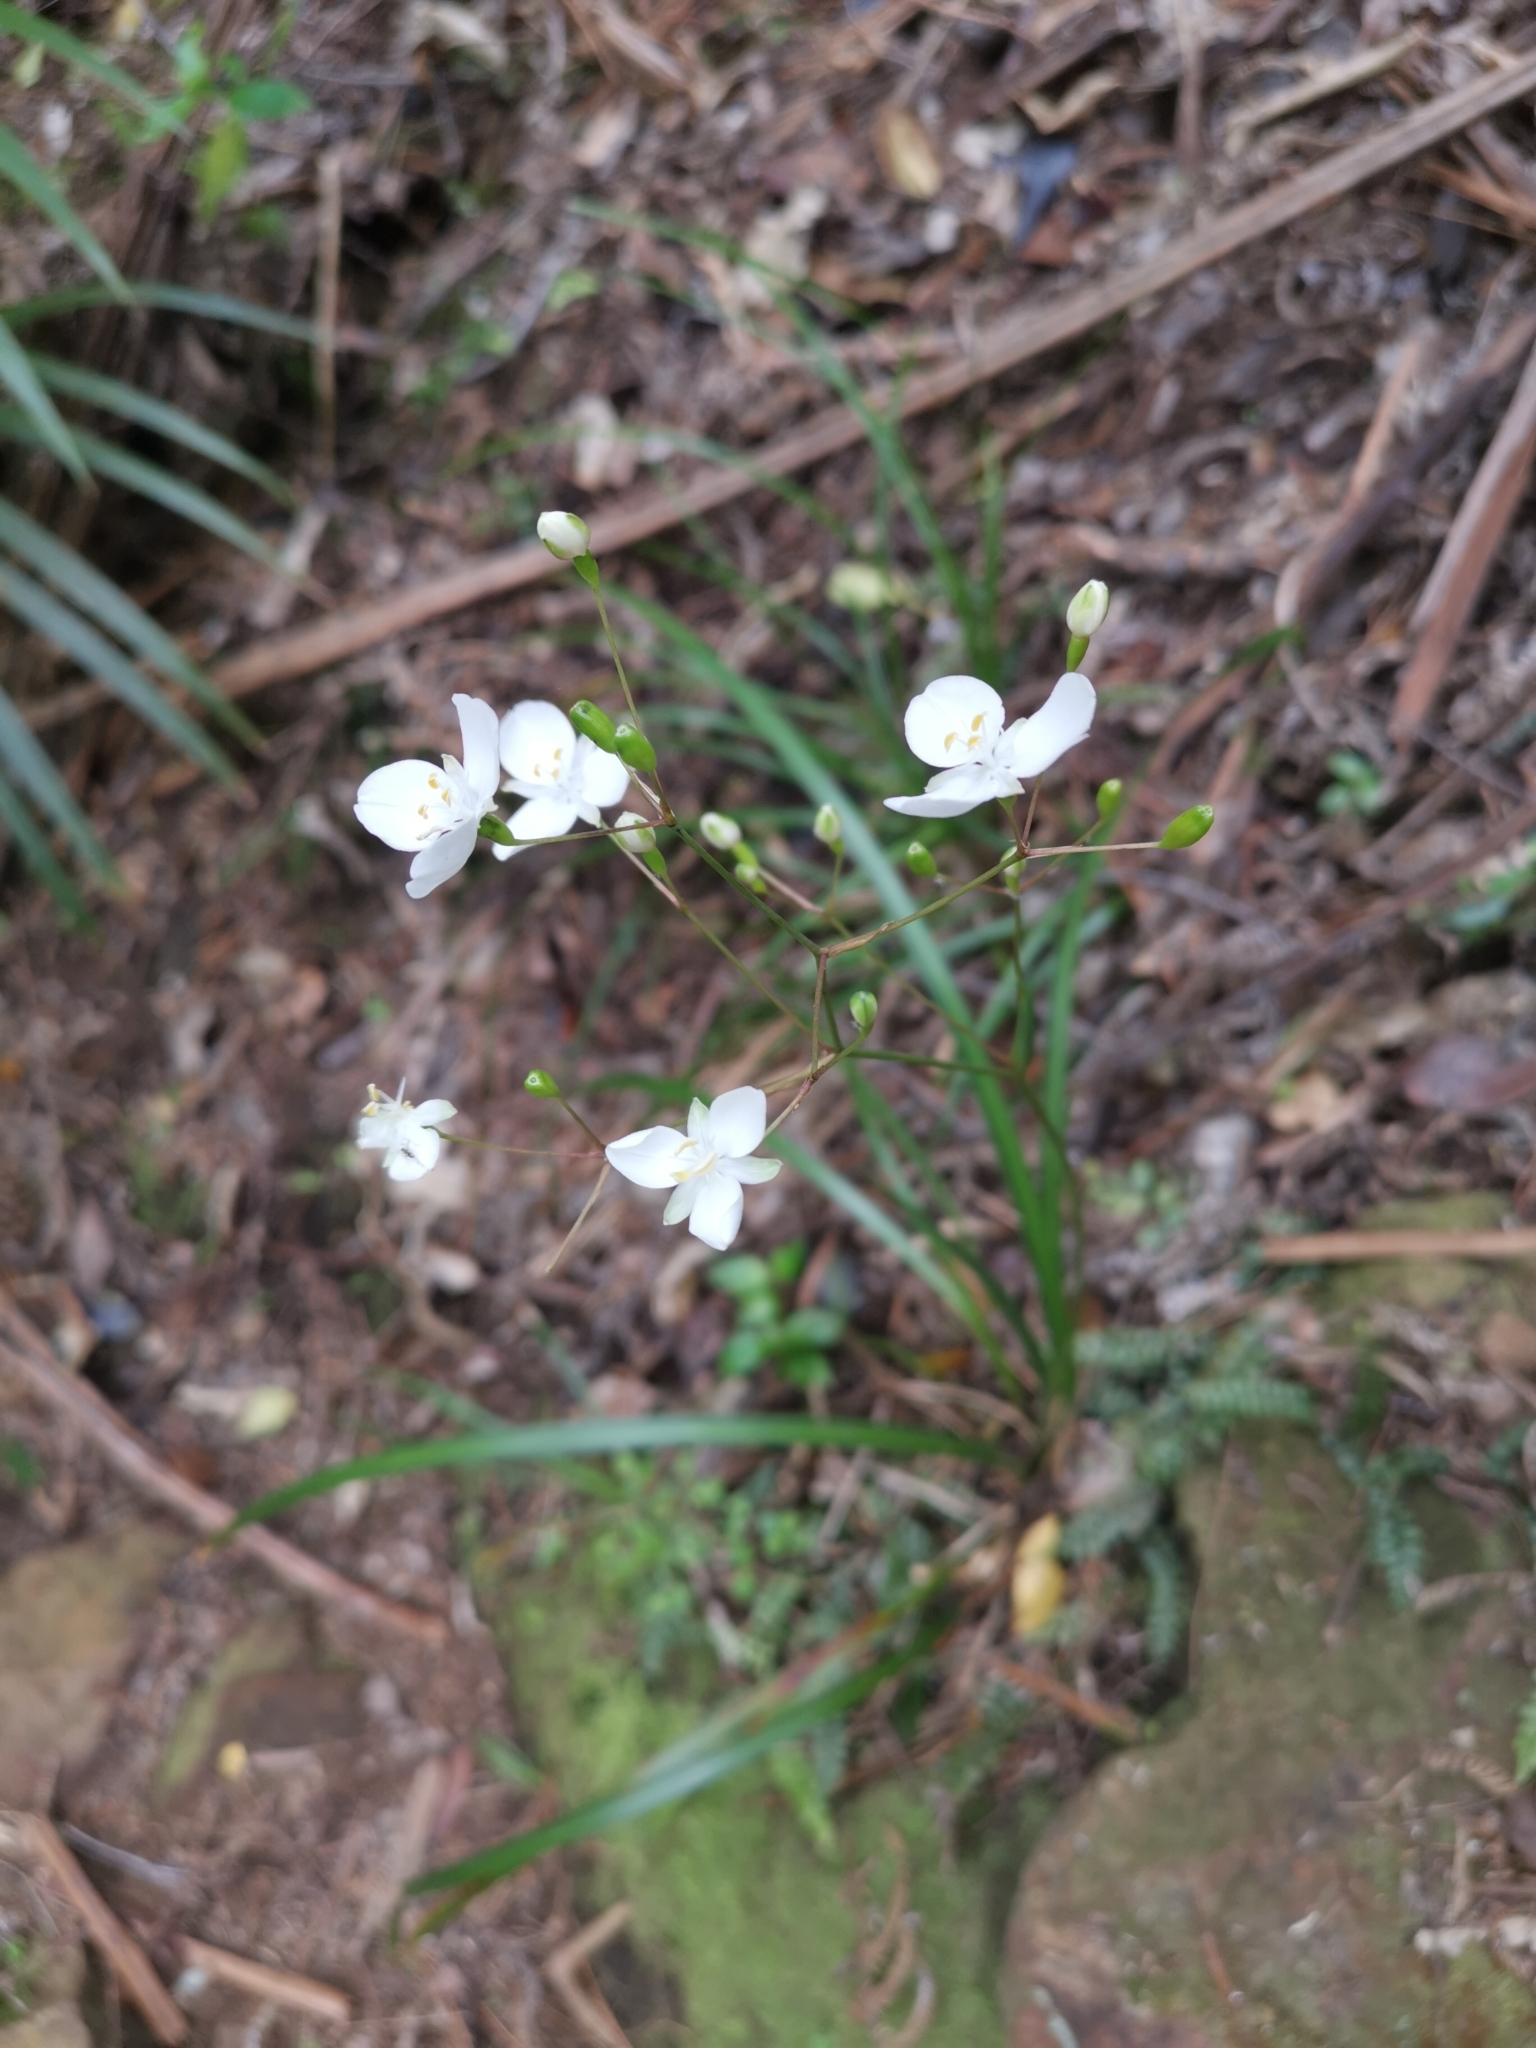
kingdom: Plantae
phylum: Tracheophyta
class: Liliopsida
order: Asparagales
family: Iridaceae
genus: Libertia
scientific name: Libertia grandiflora
